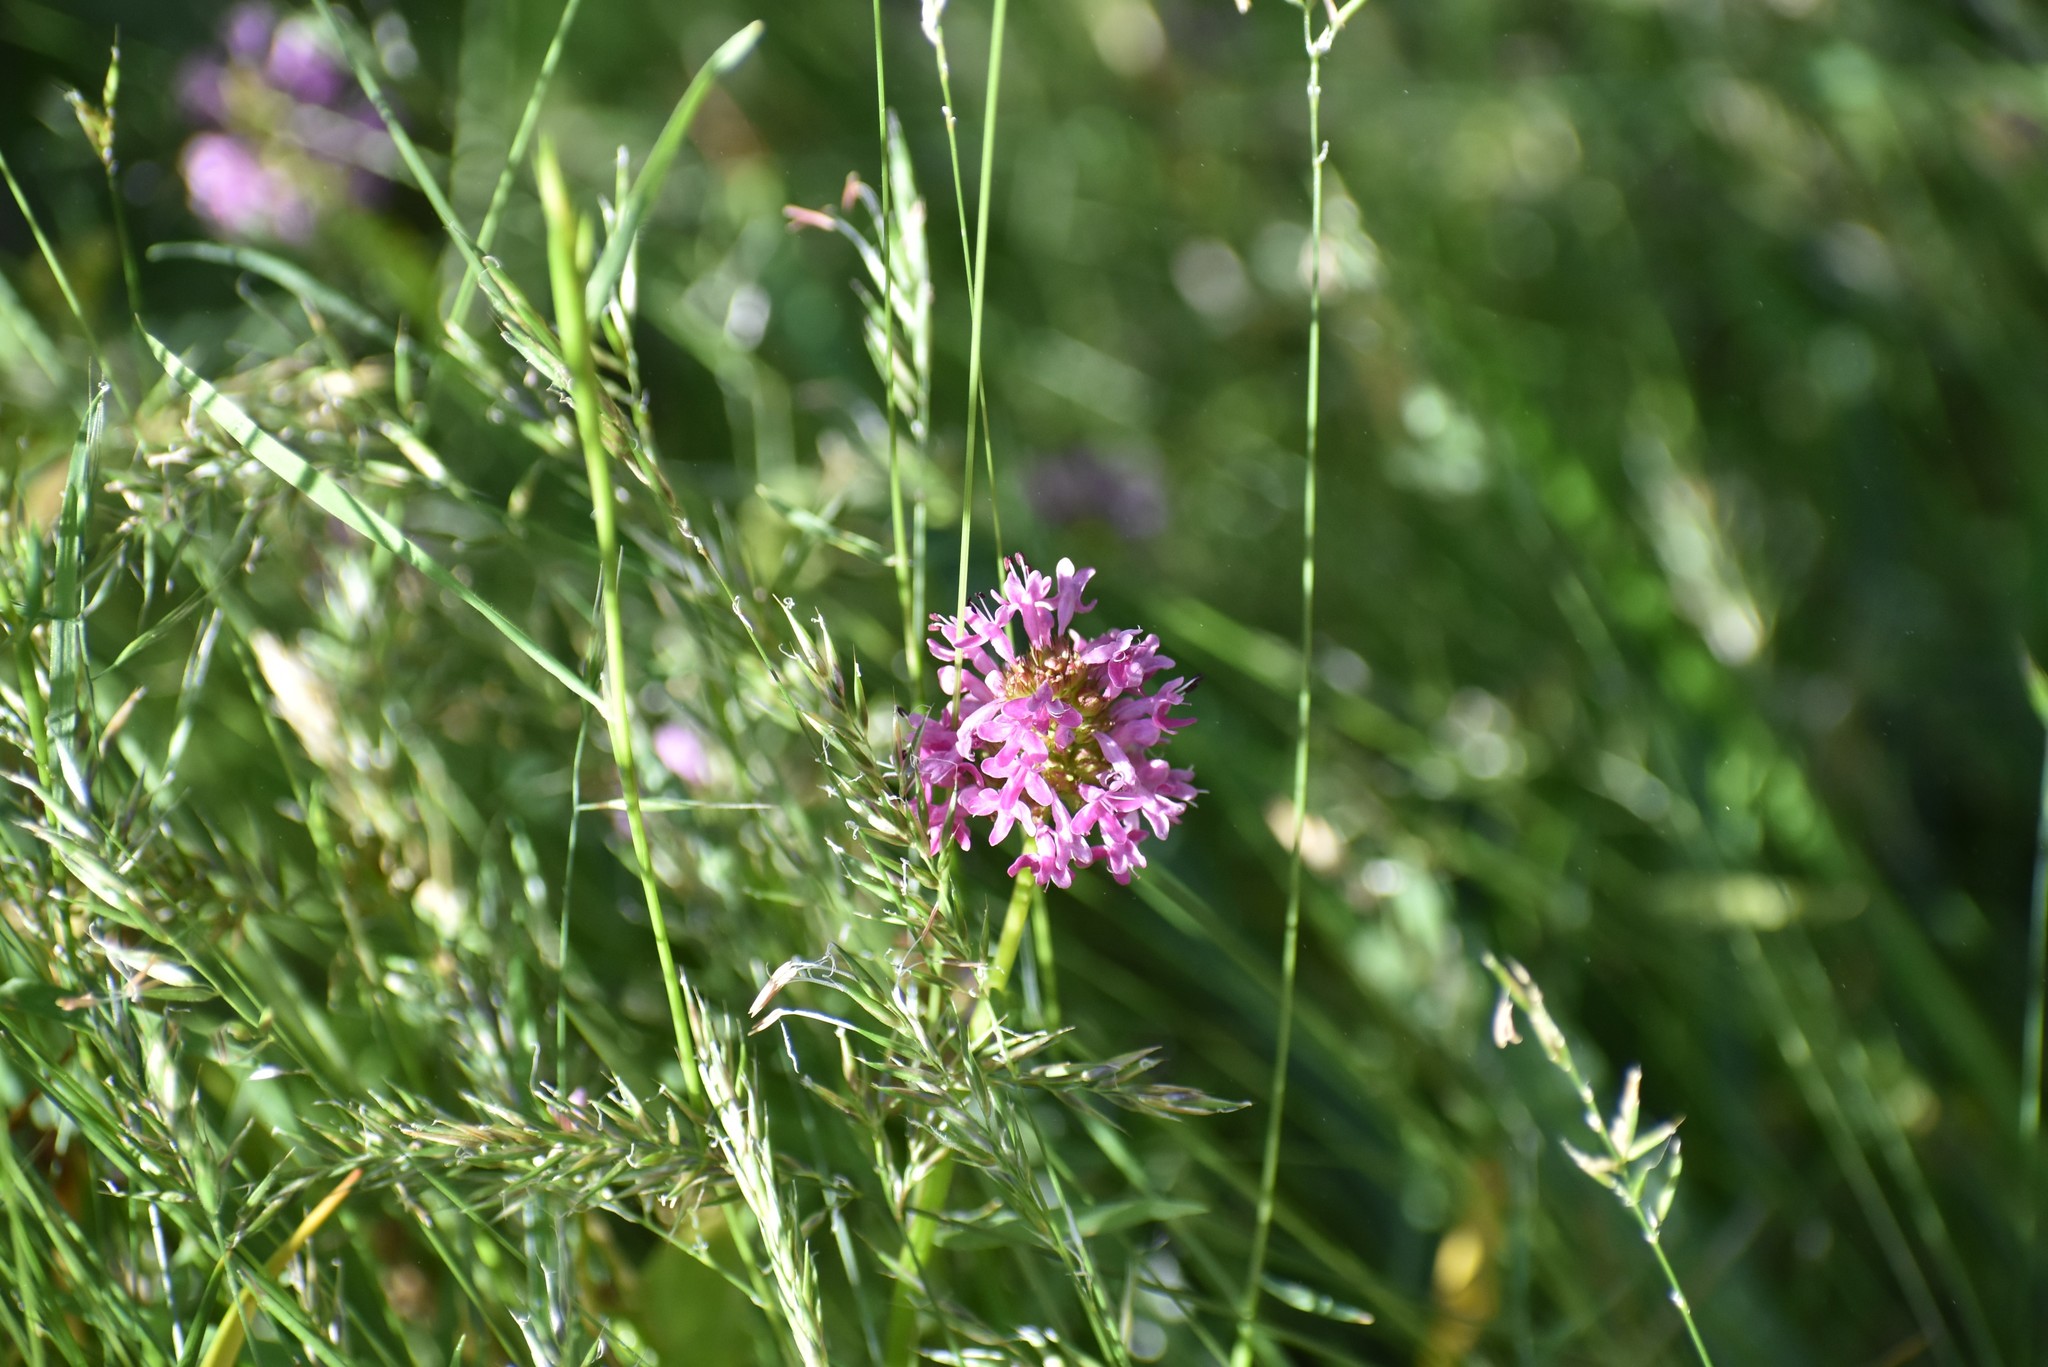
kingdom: Plantae
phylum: Tracheophyta
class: Magnoliopsida
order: Dipsacales
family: Caprifoliaceae
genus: Plectritis
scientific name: Plectritis congesta
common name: Pink plectritis
